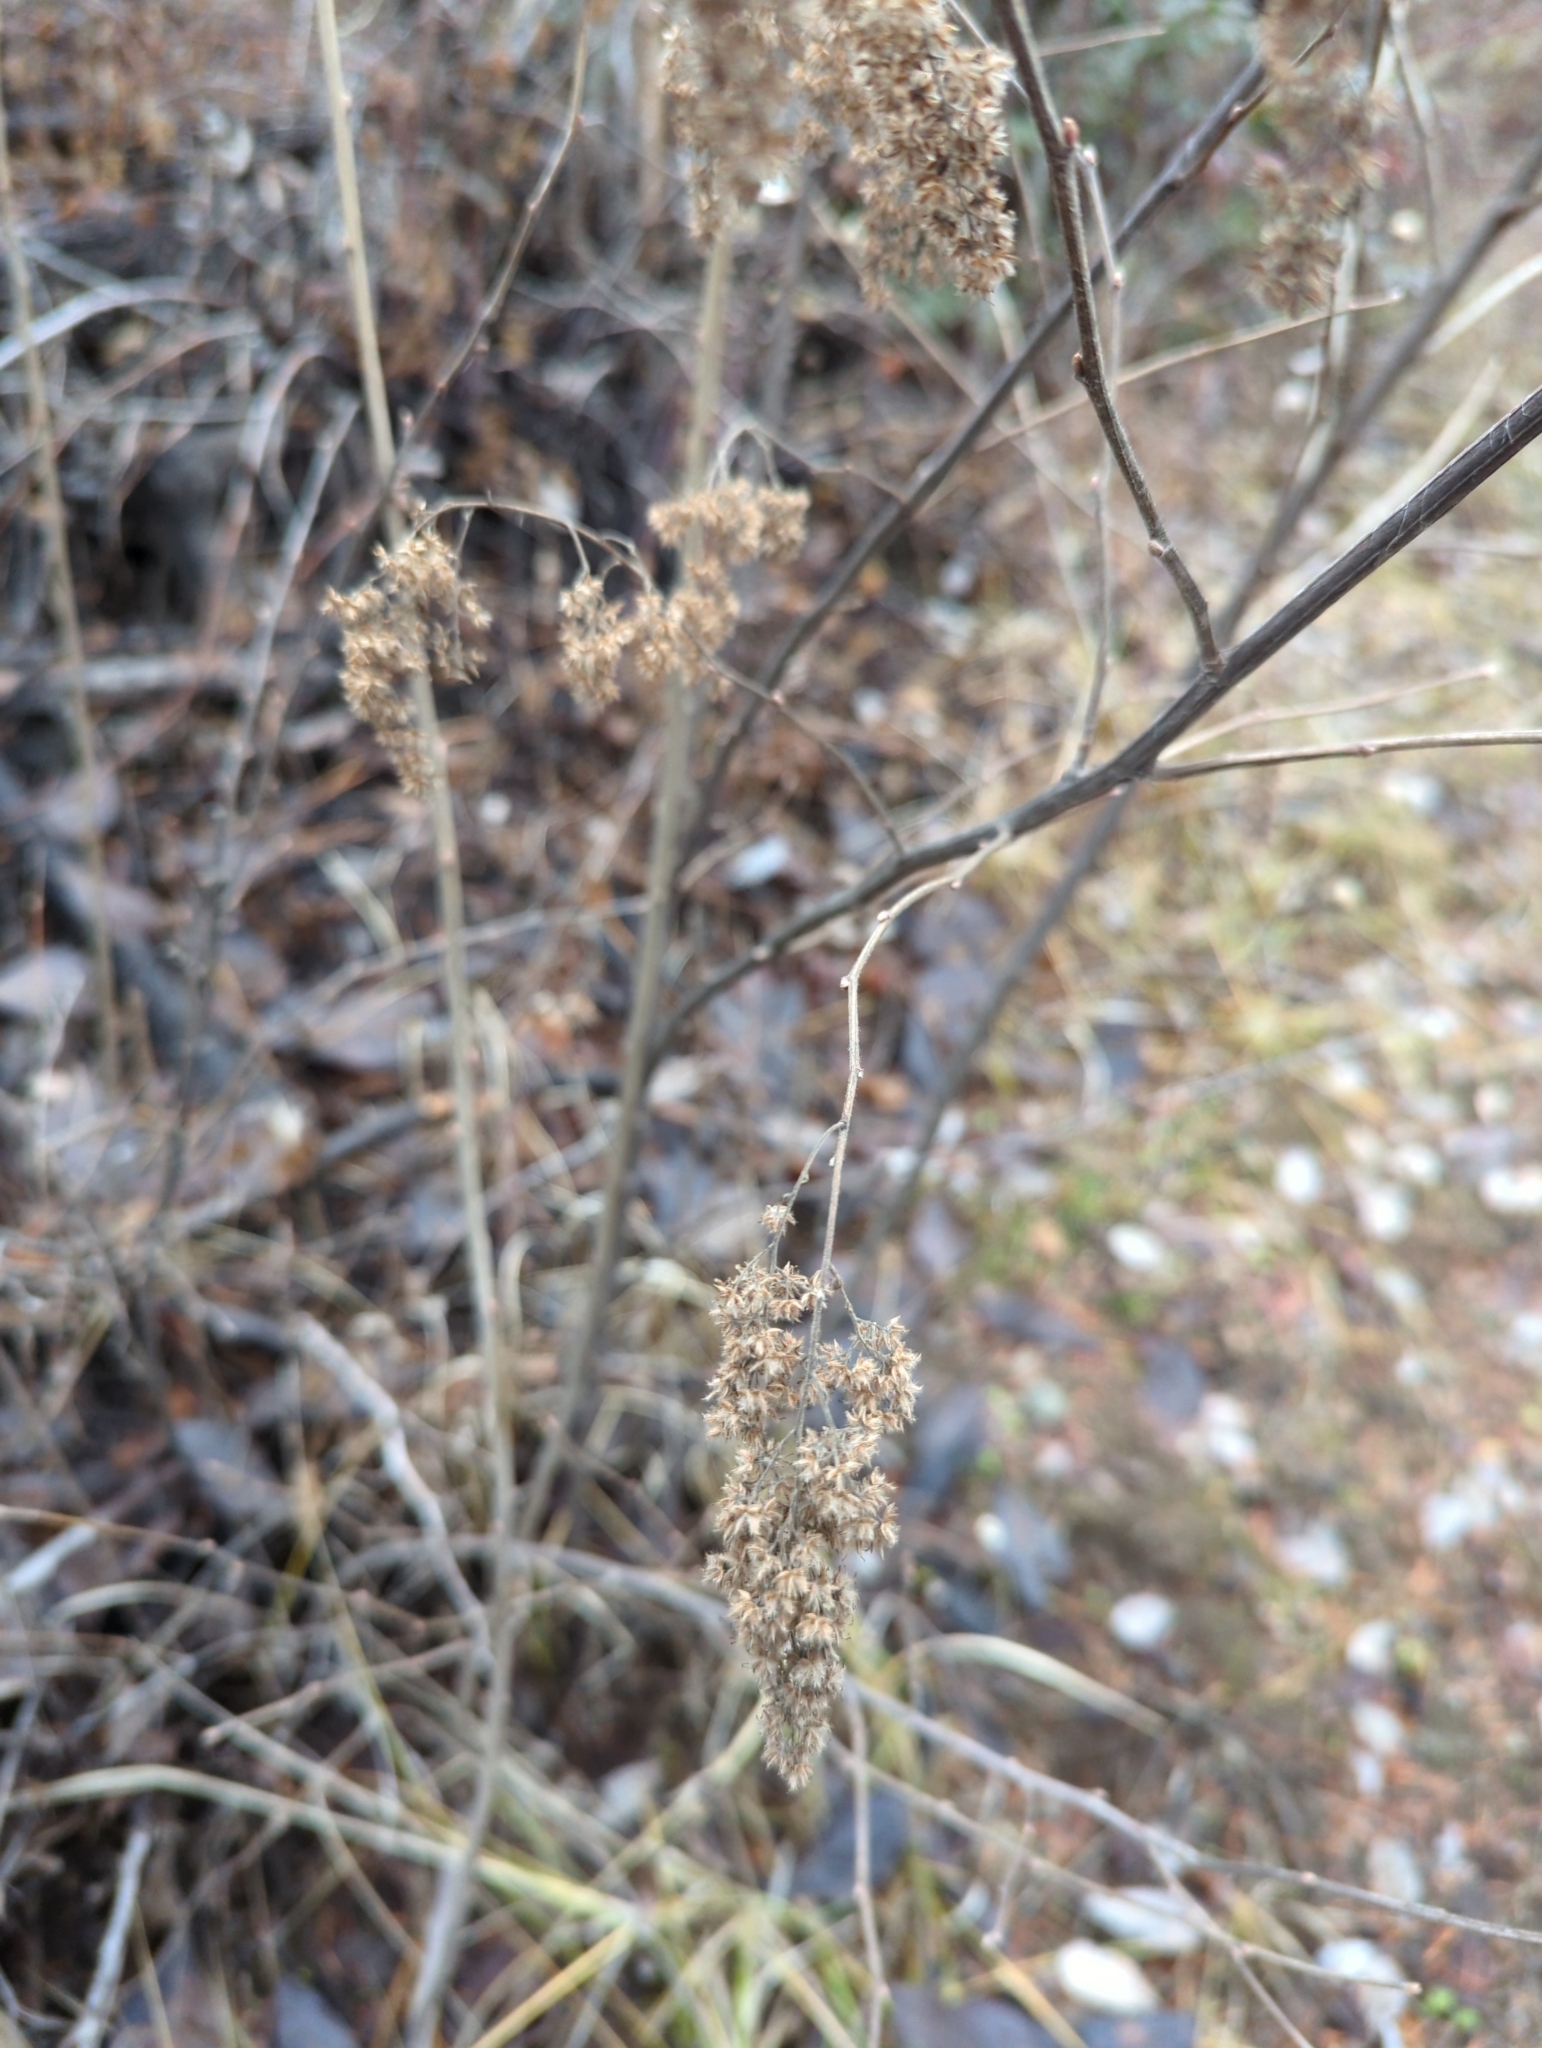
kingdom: Plantae
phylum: Tracheophyta
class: Magnoliopsida
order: Rosales
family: Rosaceae
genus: Holodiscus
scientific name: Holodiscus discolor
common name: Oceanspray
